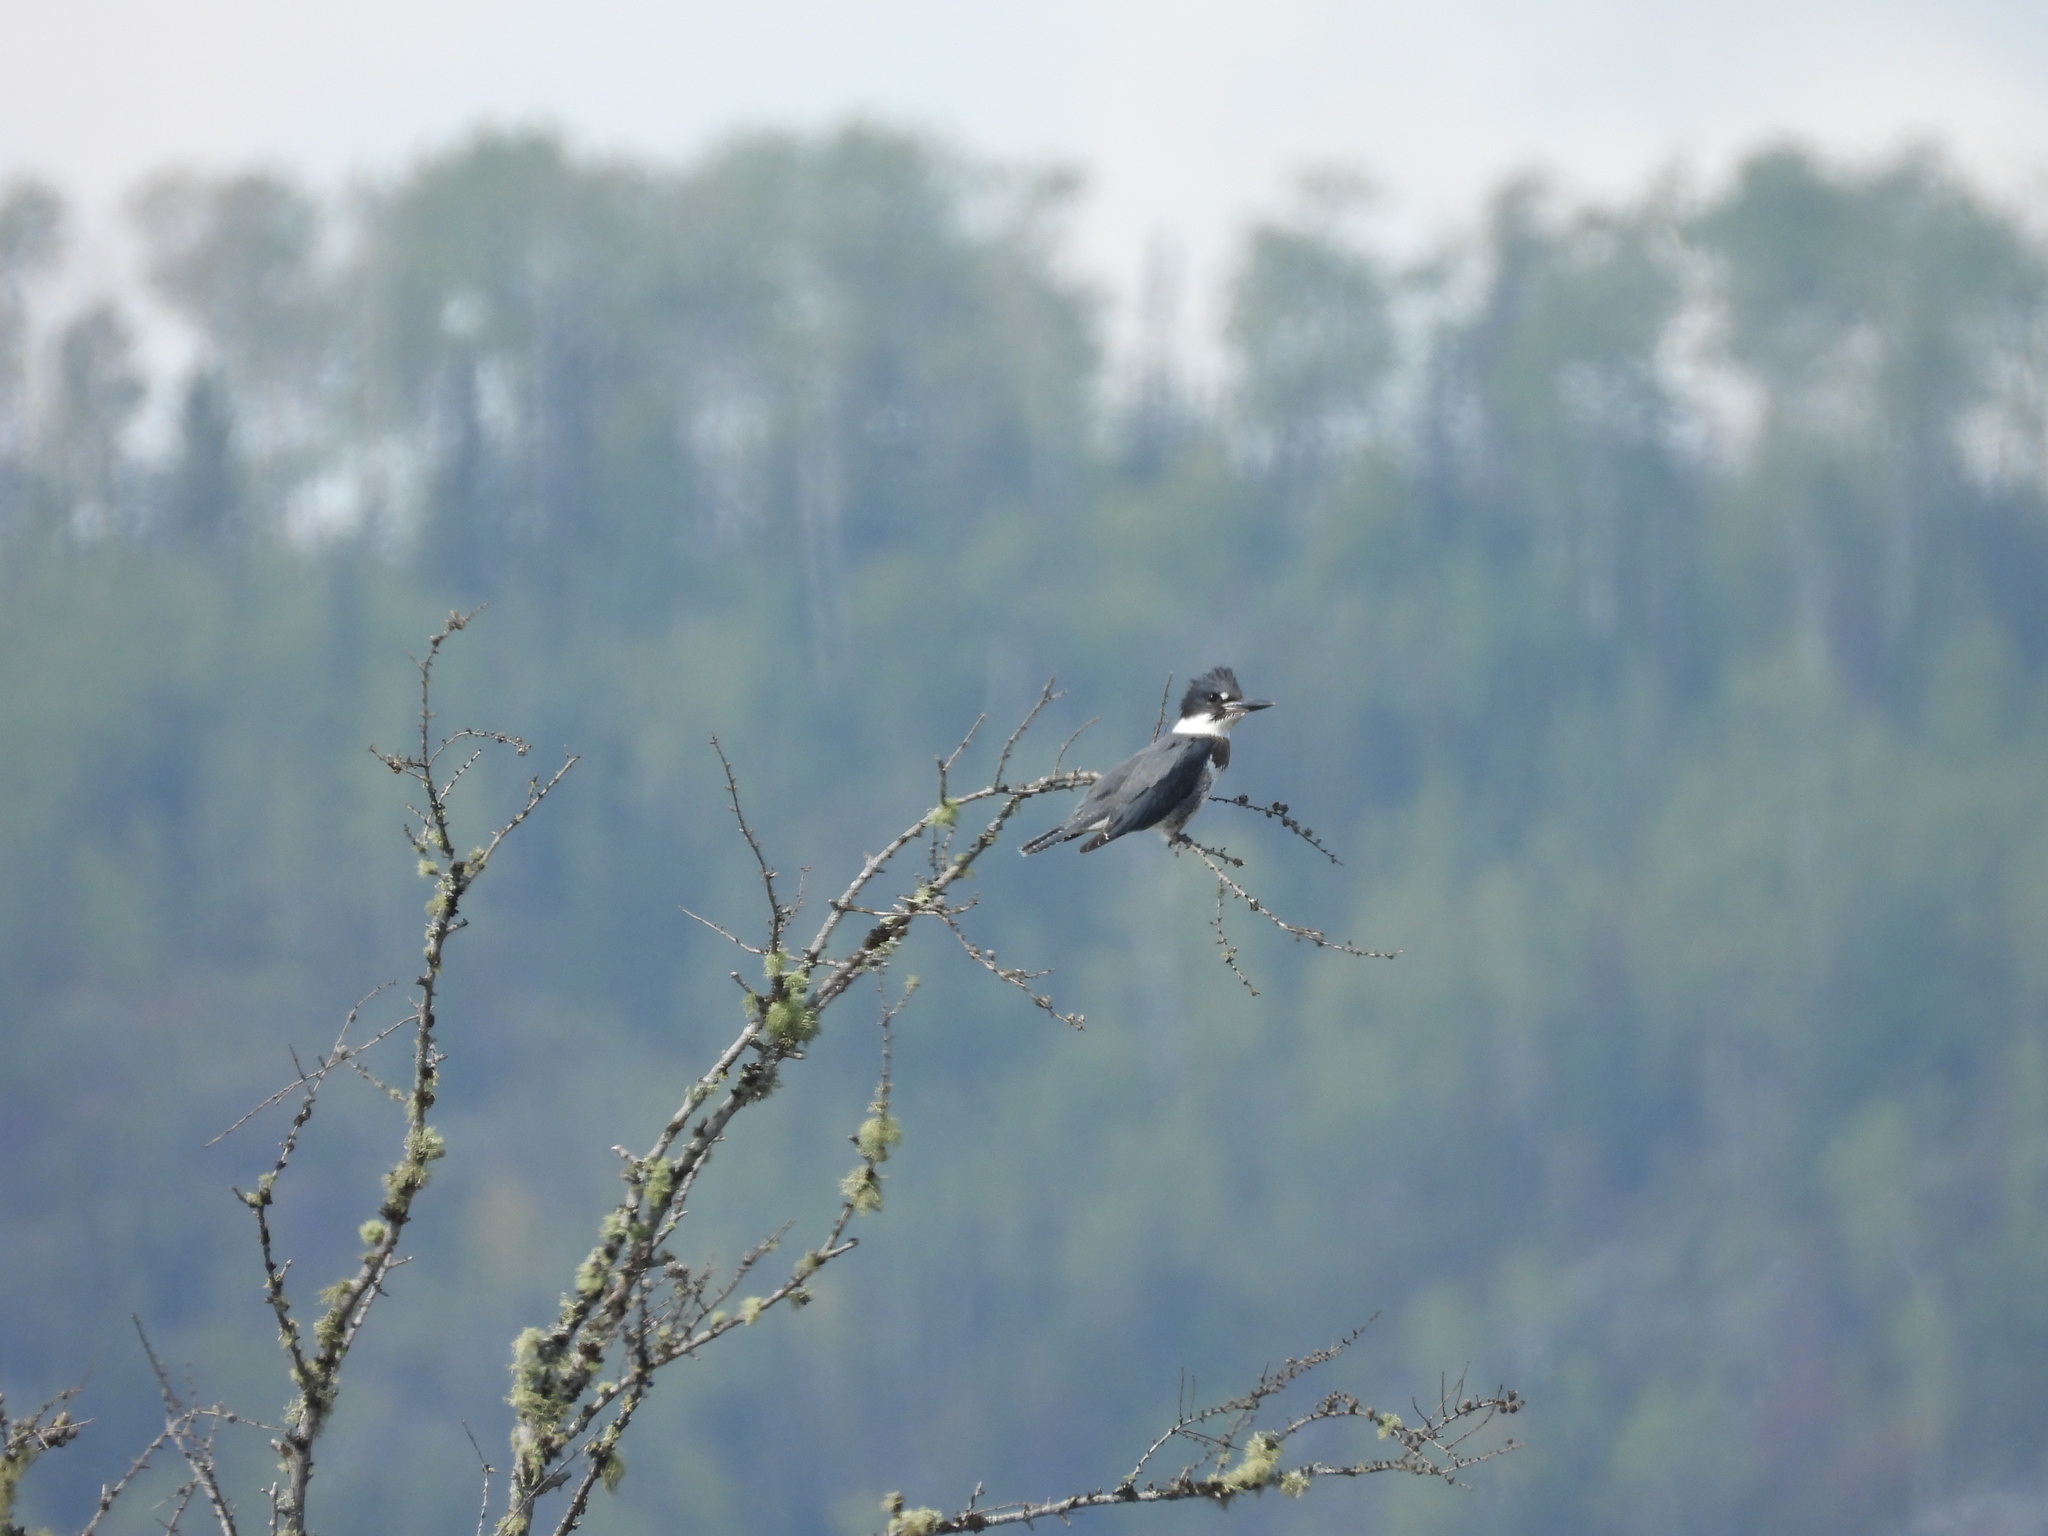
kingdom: Animalia
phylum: Chordata
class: Aves
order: Coraciiformes
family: Alcedinidae
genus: Megaceryle
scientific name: Megaceryle alcyon
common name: Belted kingfisher
